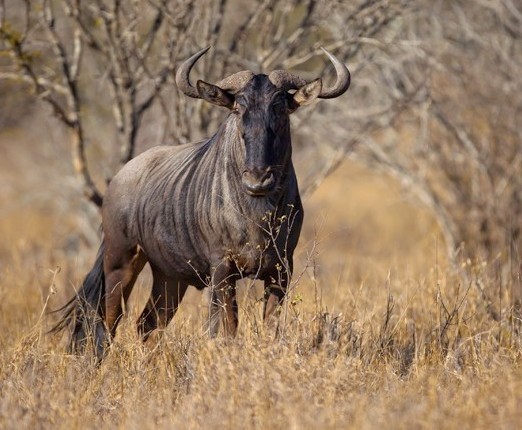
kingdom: Animalia
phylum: Chordata
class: Mammalia
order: Artiodactyla
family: Bovidae
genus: Connochaetes
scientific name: Connochaetes taurinus
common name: Blue wildebeest
